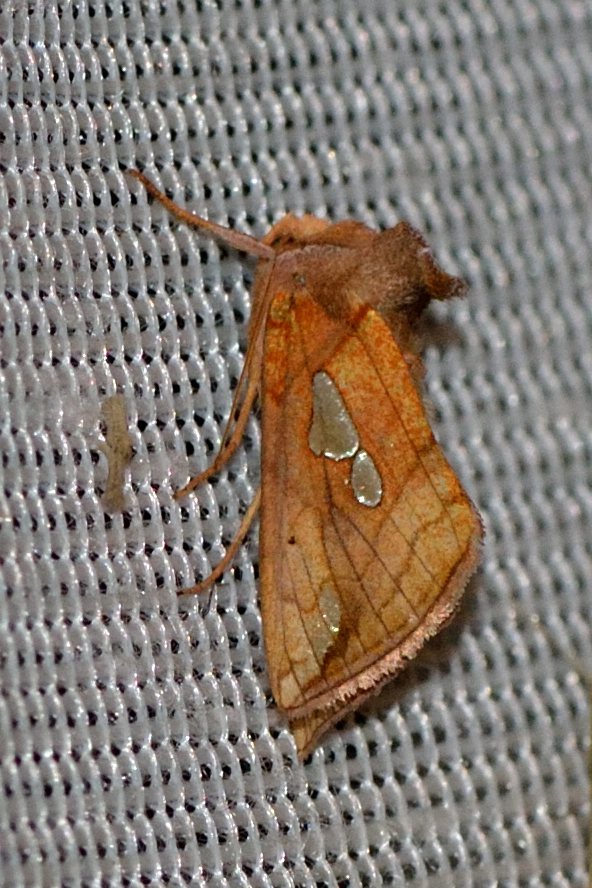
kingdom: Animalia
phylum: Arthropoda
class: Insecta
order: Lepidoptera
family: Noctuidae
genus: Plusia
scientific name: Plusia putnami
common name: Lempke's gold spot
